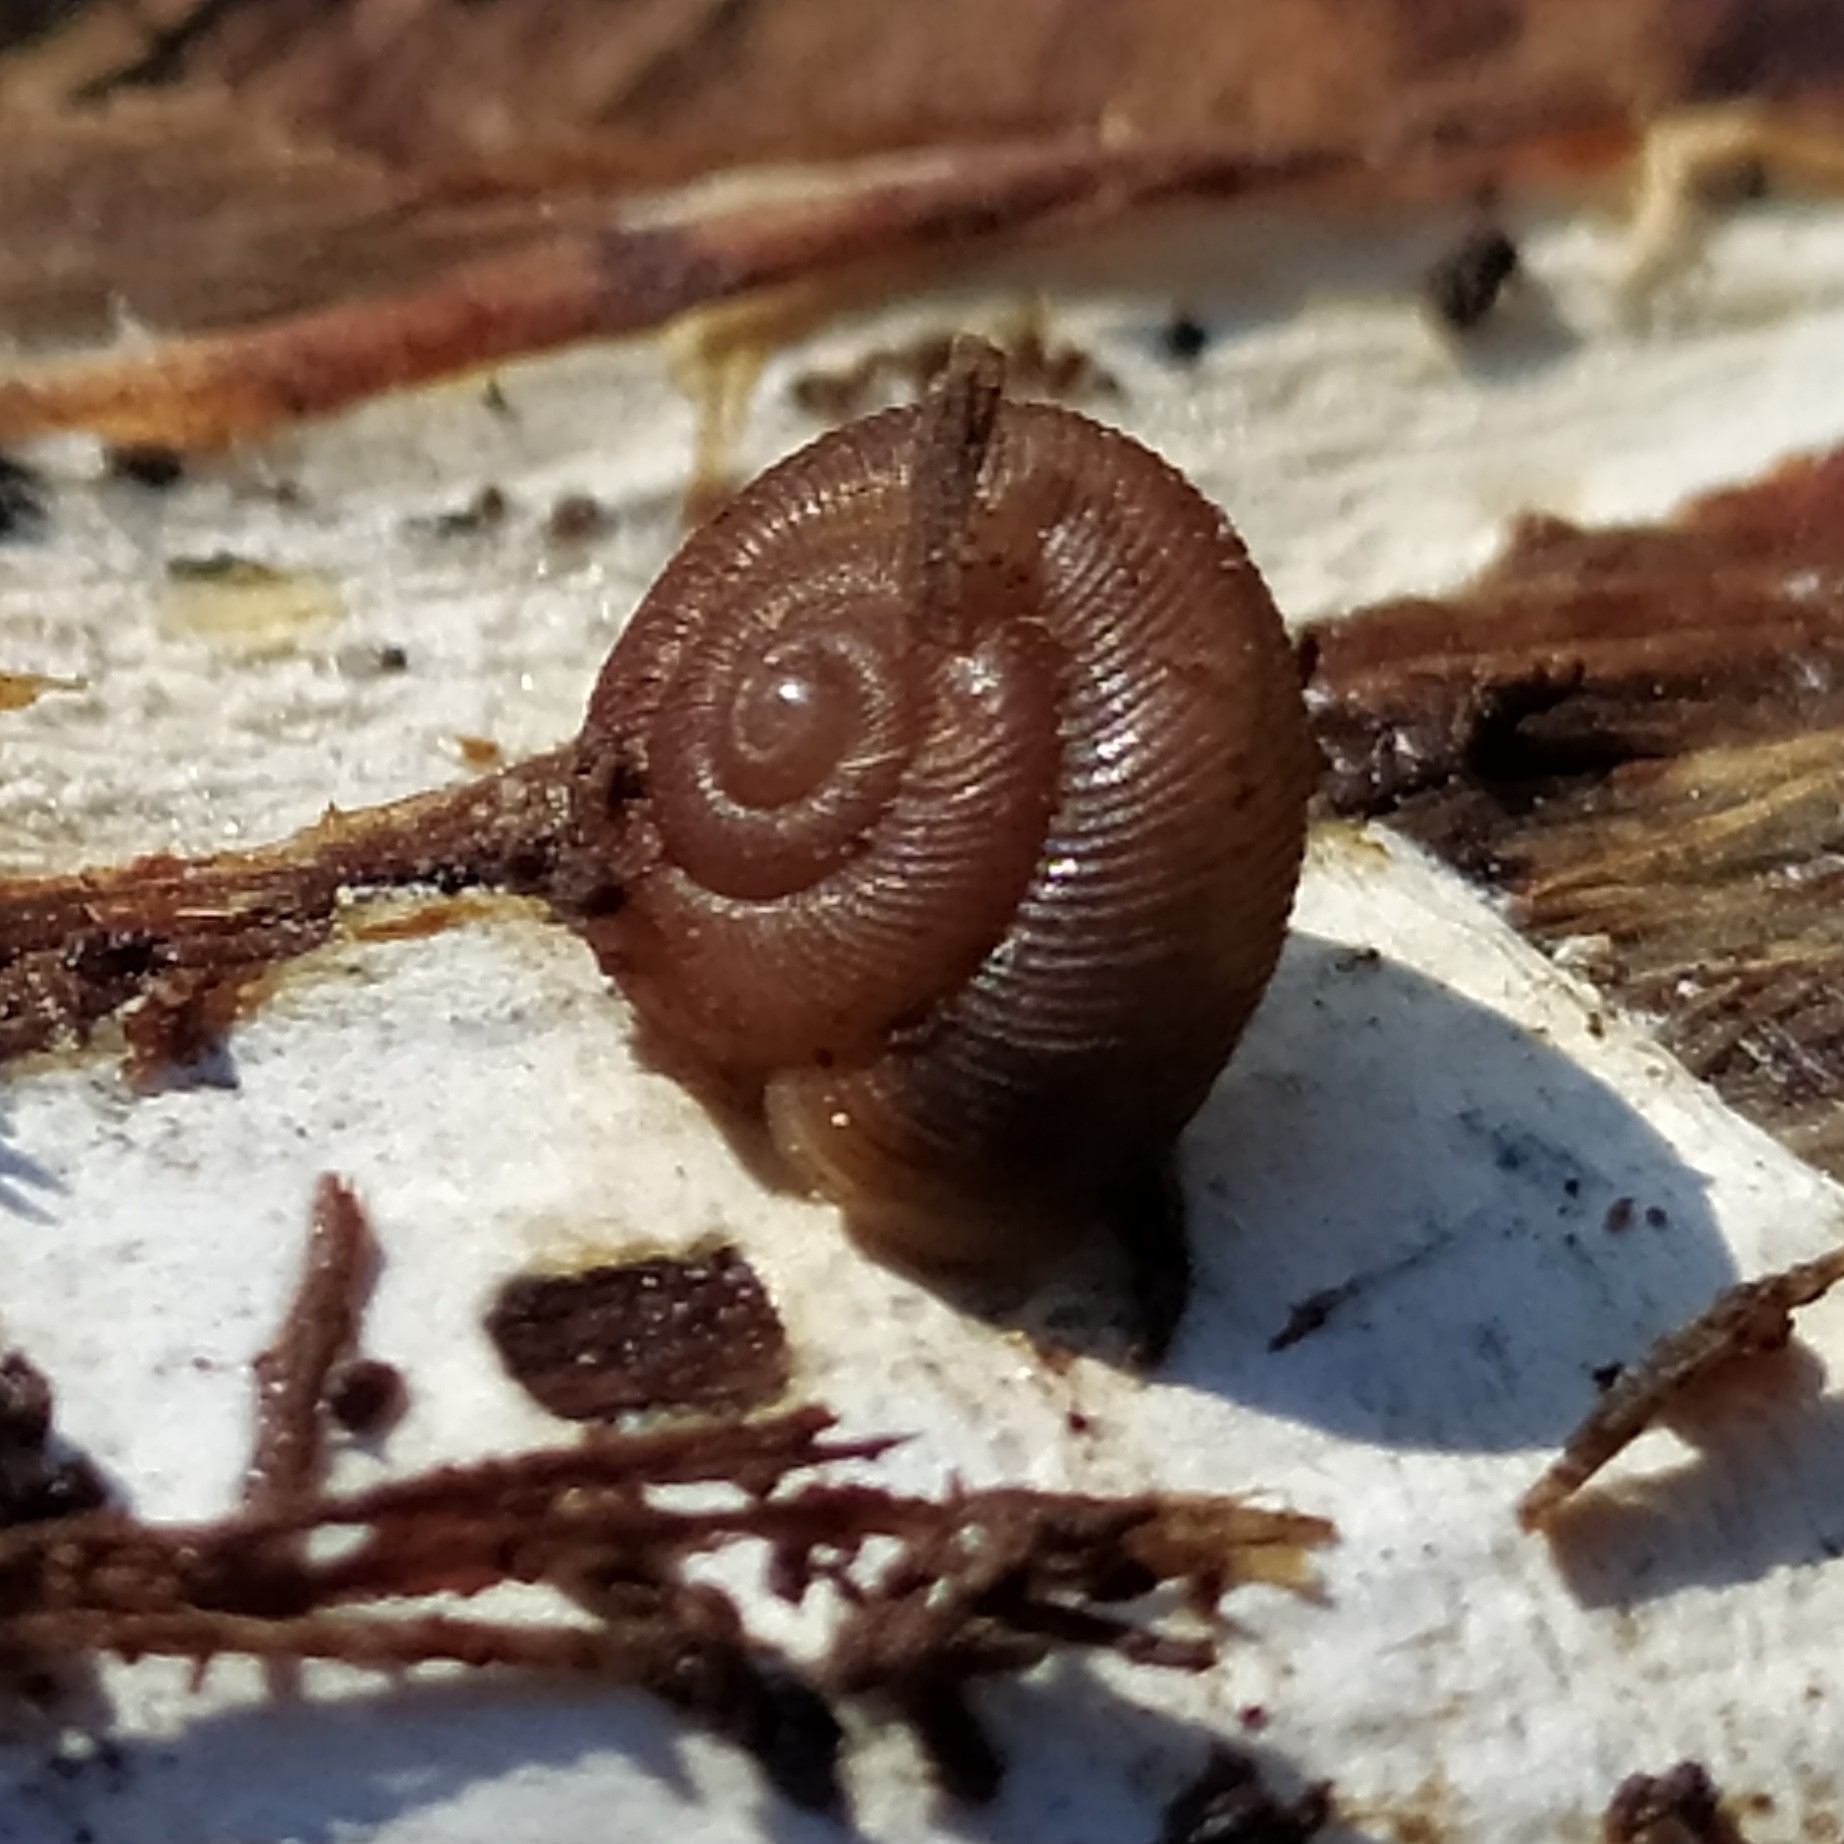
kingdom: Animalia
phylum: Mollusca
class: Gastropoda
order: Stylommatophora
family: Discidae
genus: Discus
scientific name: Discus ruderatus
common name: Brown disc snail
